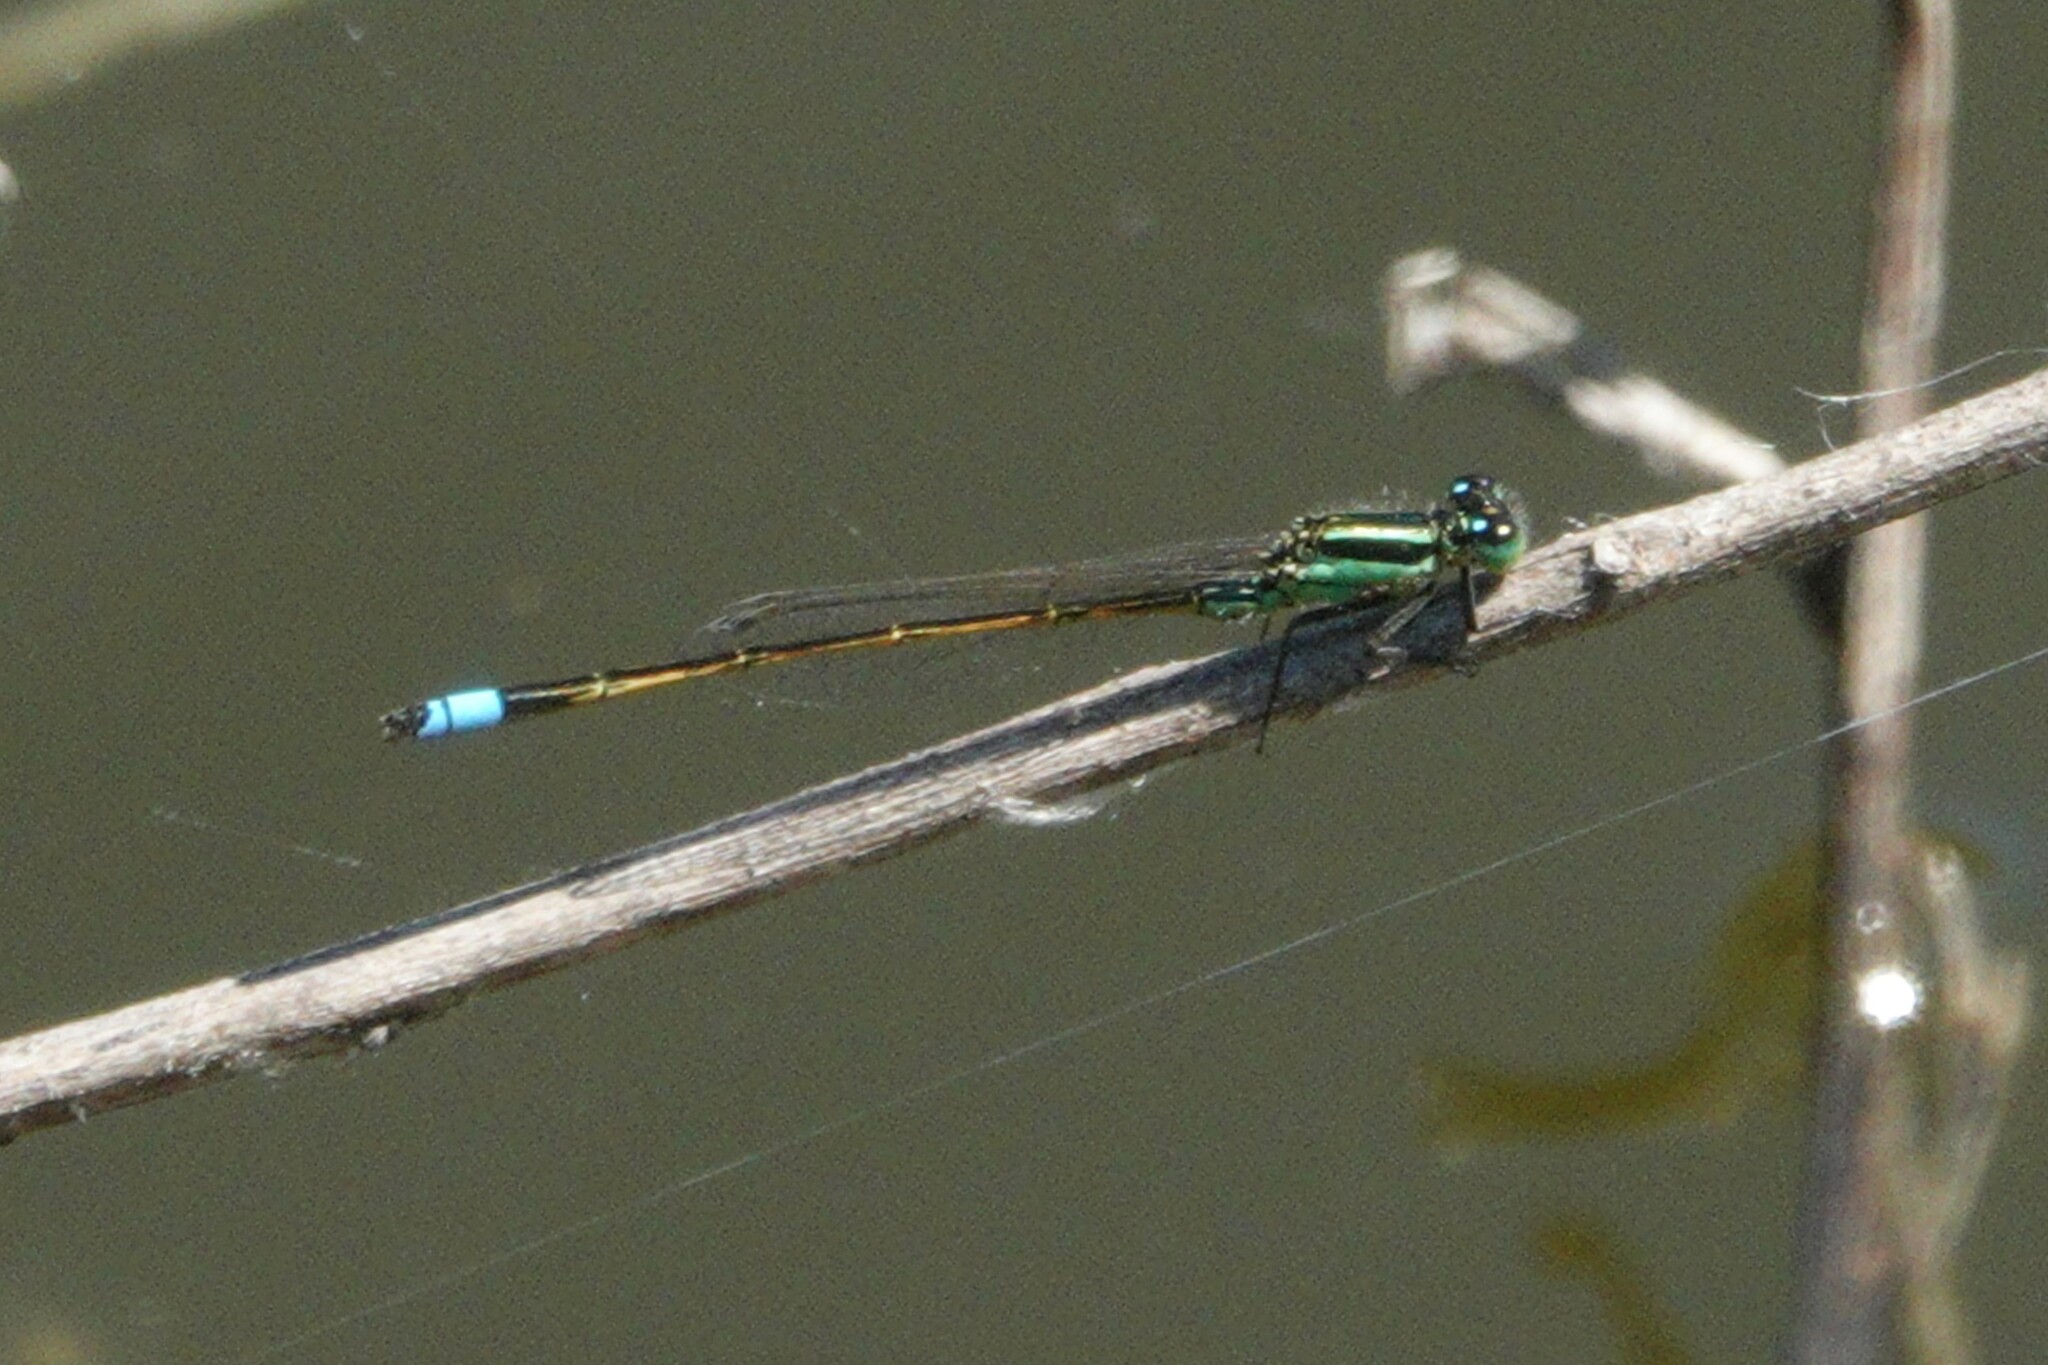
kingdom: Animalia
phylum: Arthropoda
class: Insecta
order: Odonata
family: Coenagrionidae
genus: Ischnura
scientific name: Ischnura ramburii
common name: Rambur's forktail
